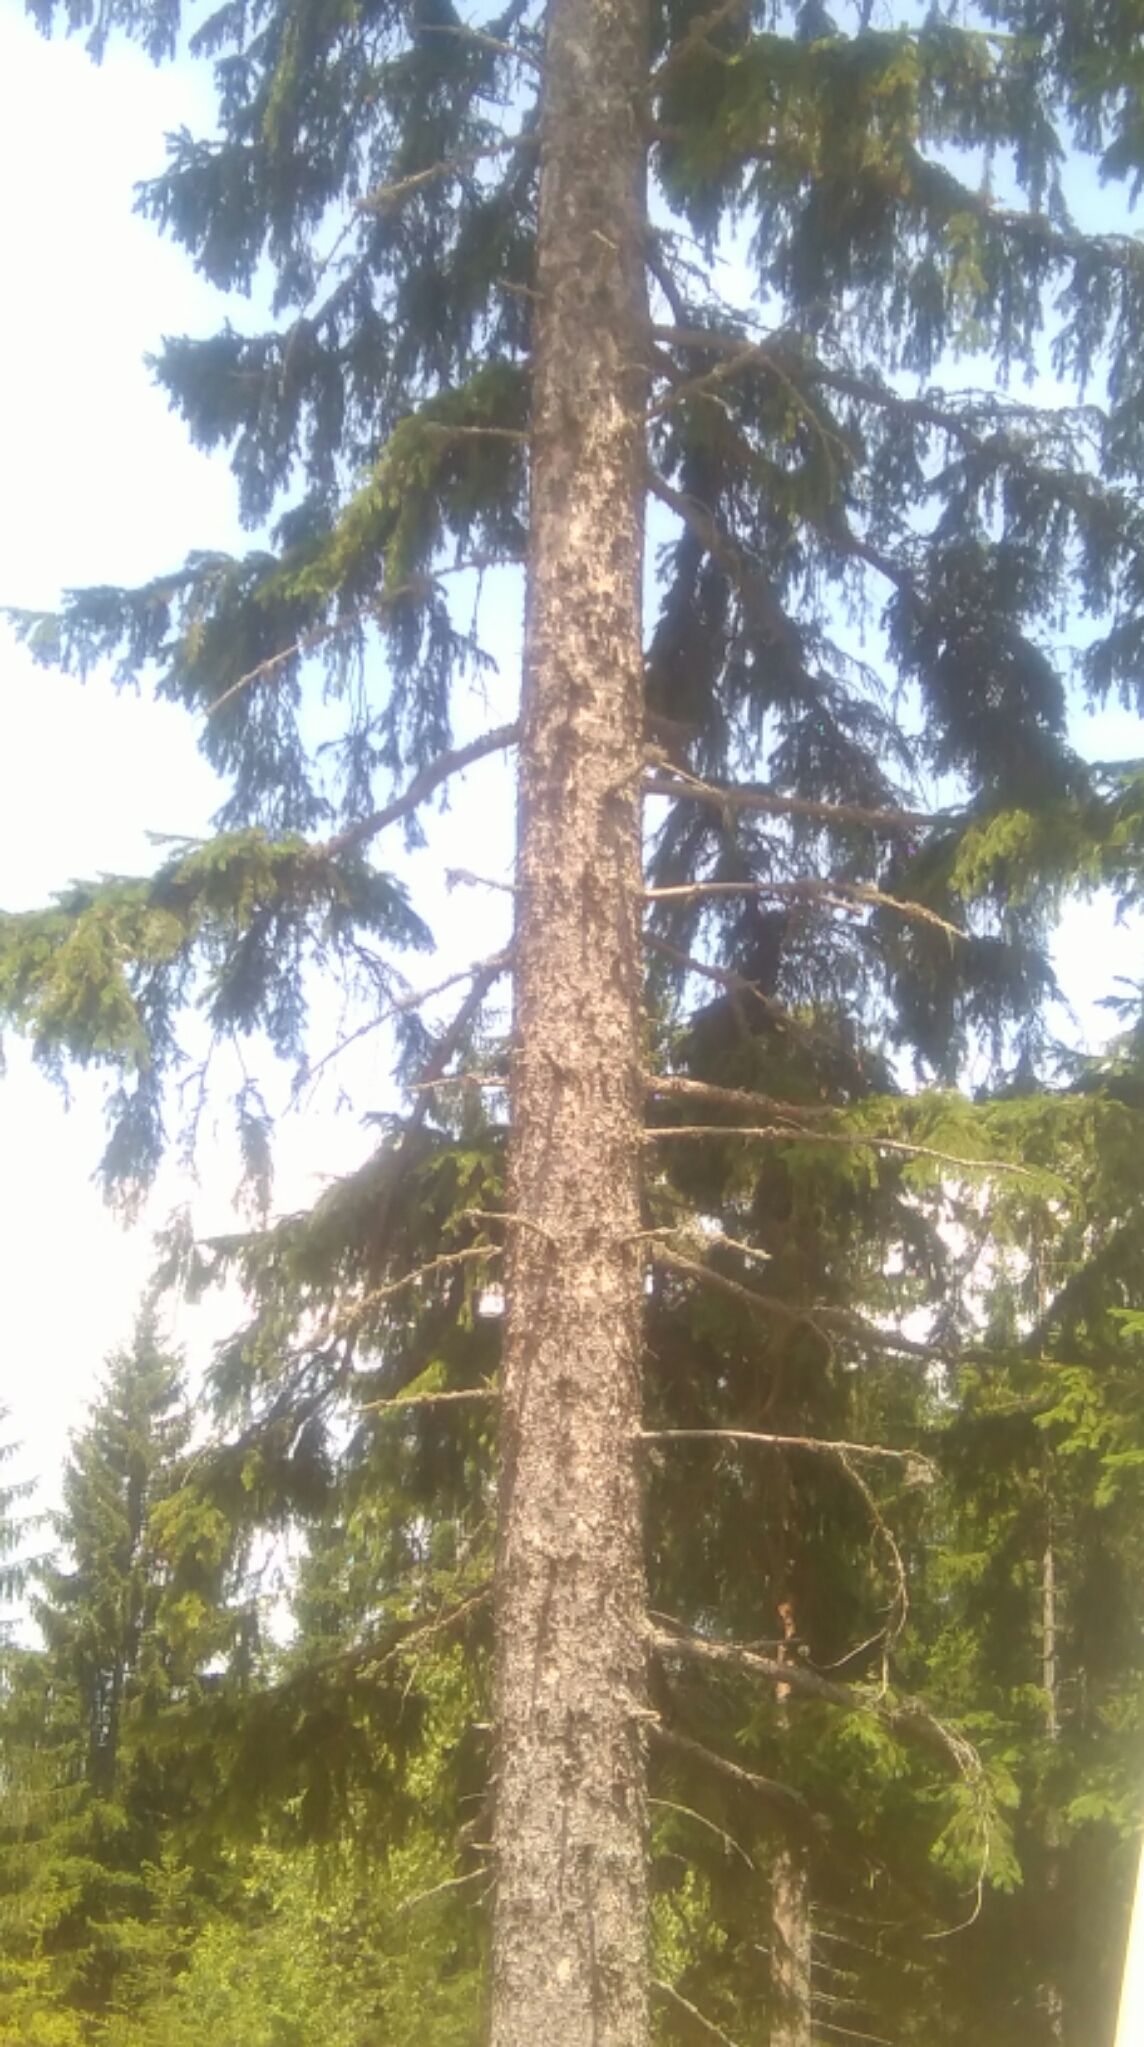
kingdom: Plantae
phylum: Tracheophyta
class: Pinopsida
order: Pinales
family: Pinaceae
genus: Picea
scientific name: Picea abies
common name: Norway spruce
